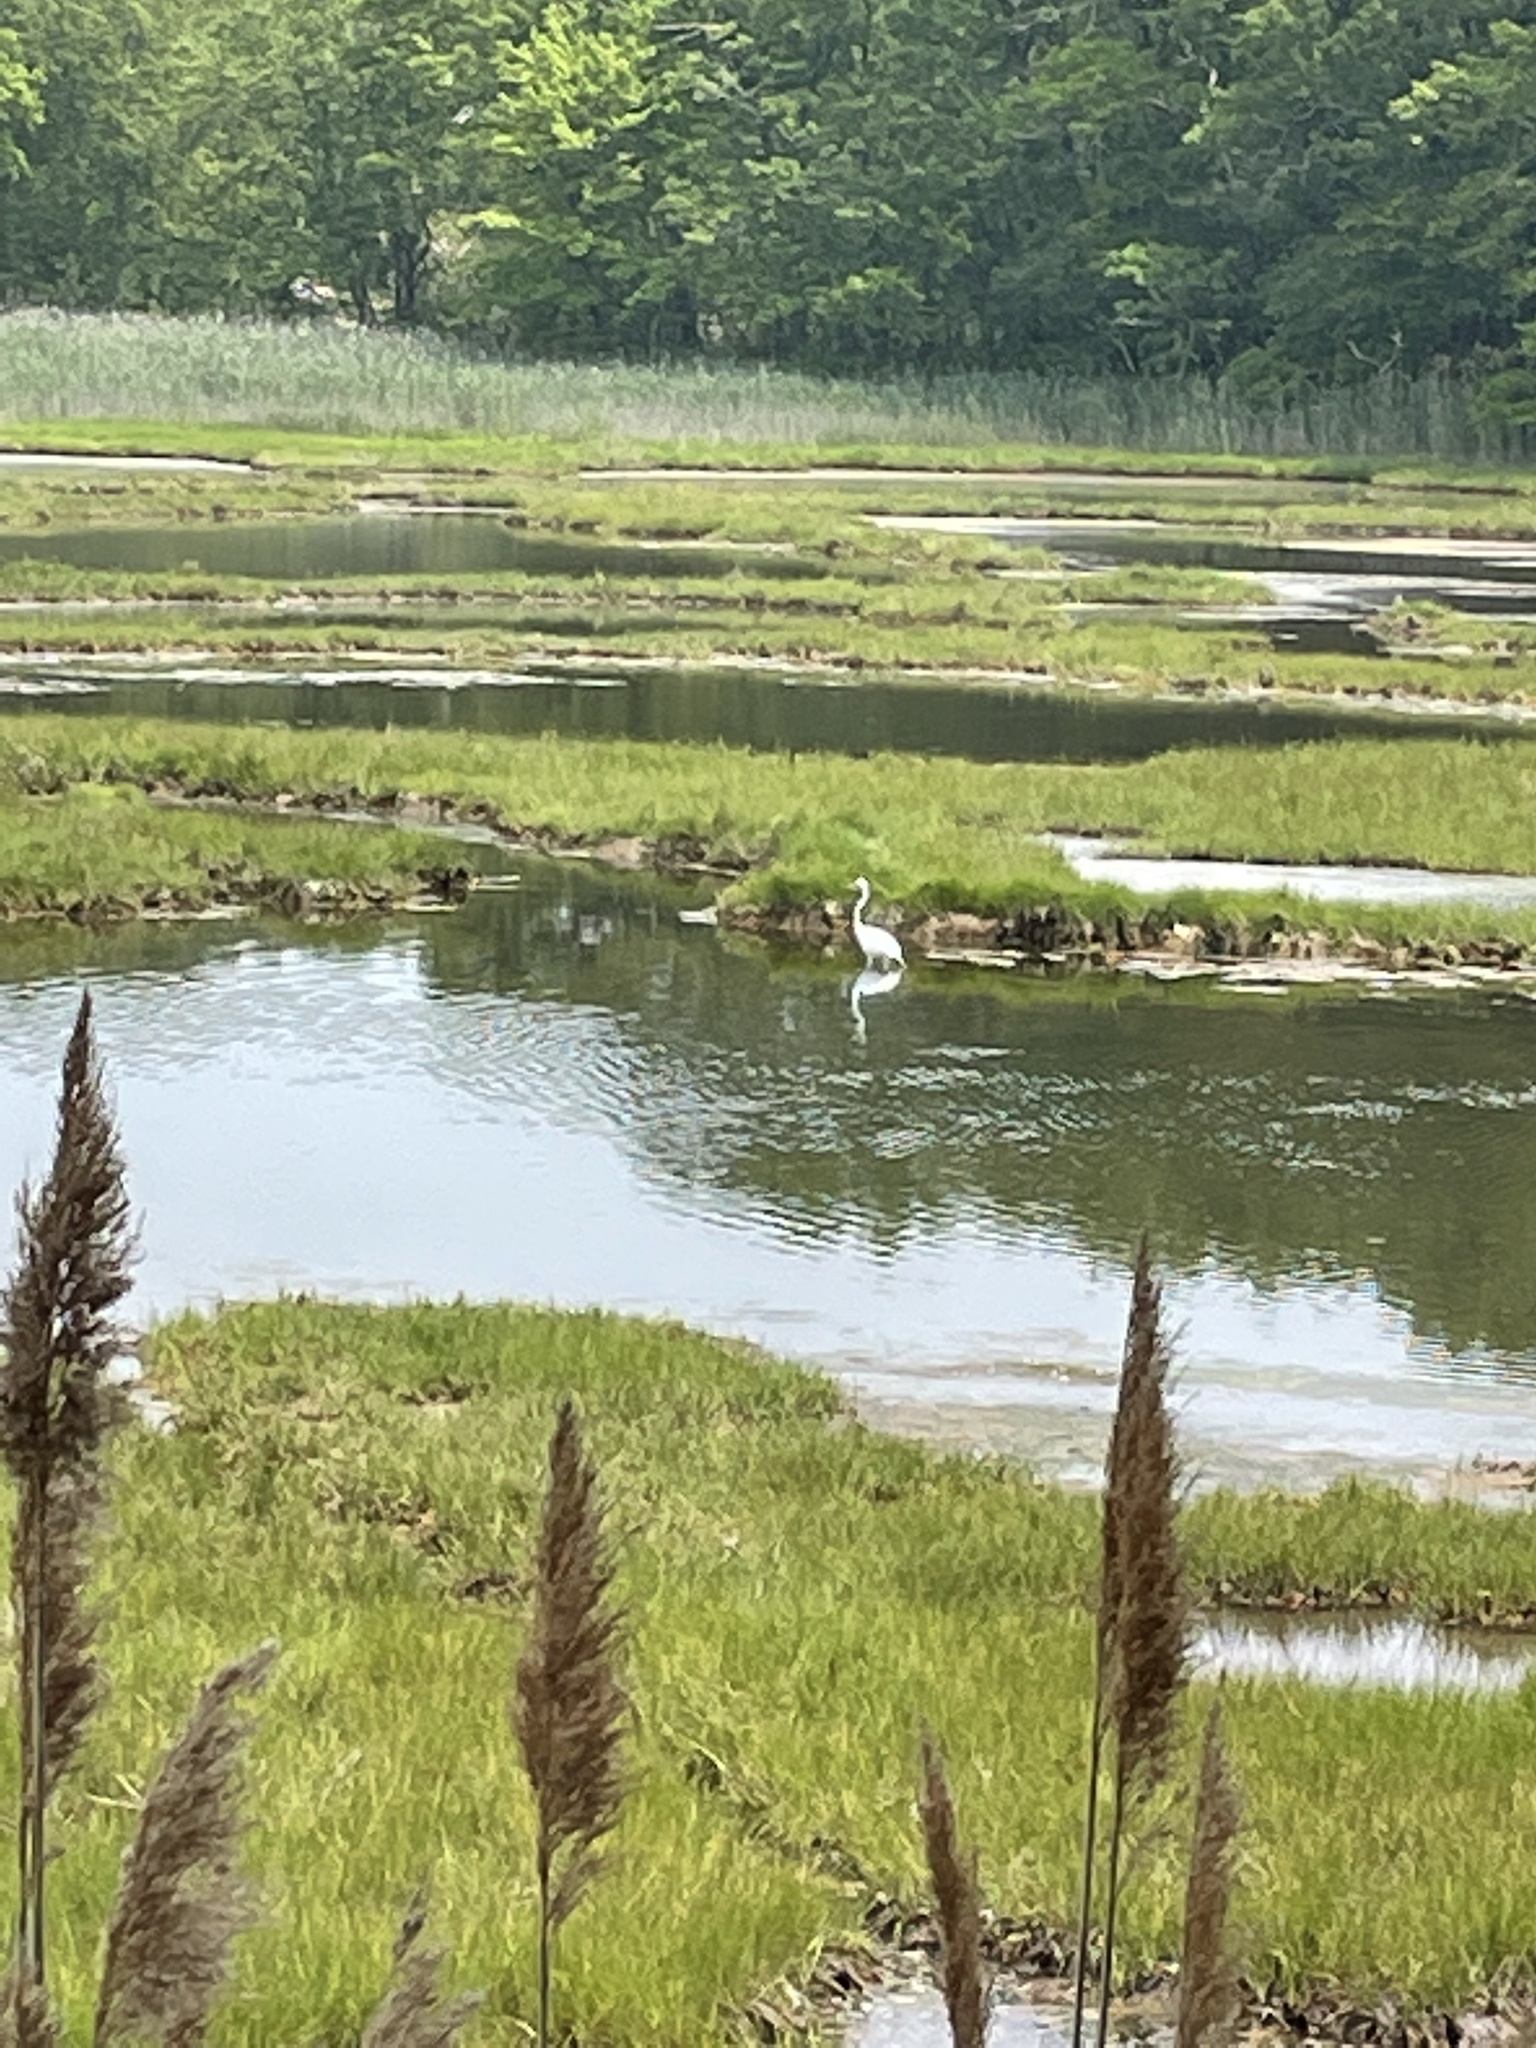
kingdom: Animalia
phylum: Chordata
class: Aves
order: Pelecaniformes
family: Ardeidae
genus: Ardea
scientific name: Ardea alba
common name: Great egret
